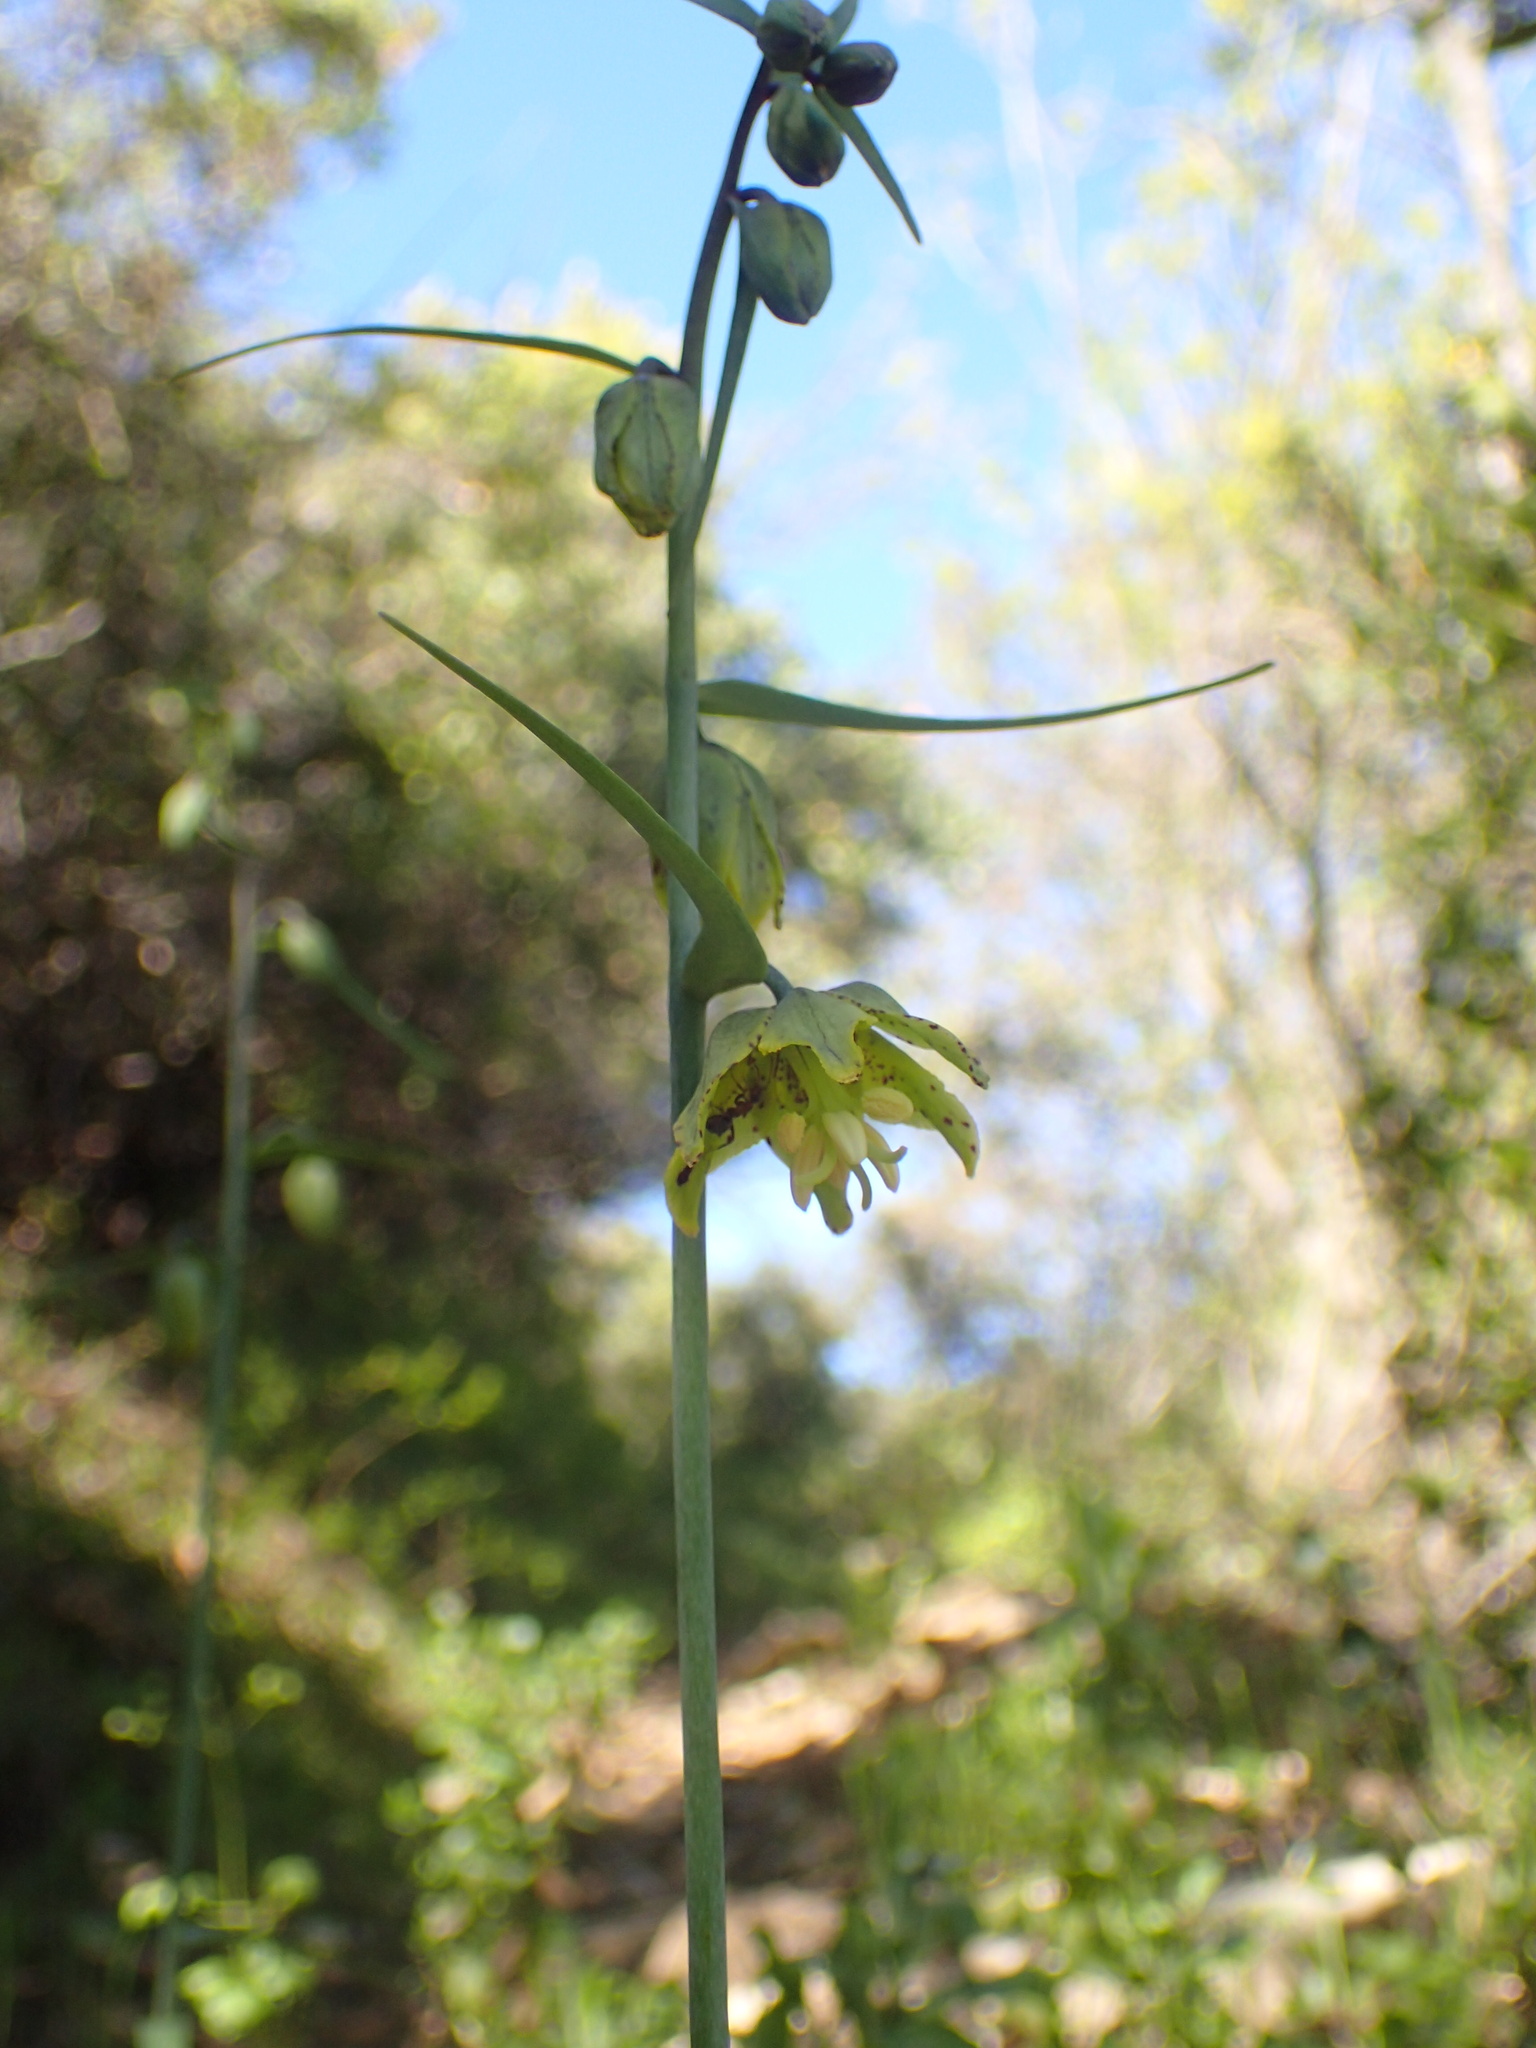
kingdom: Plantae
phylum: Tracheophyta
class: Liliopsida
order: Liliales
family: Liliaceae
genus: Fritillaria
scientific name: Fritillaria ojaiensis
